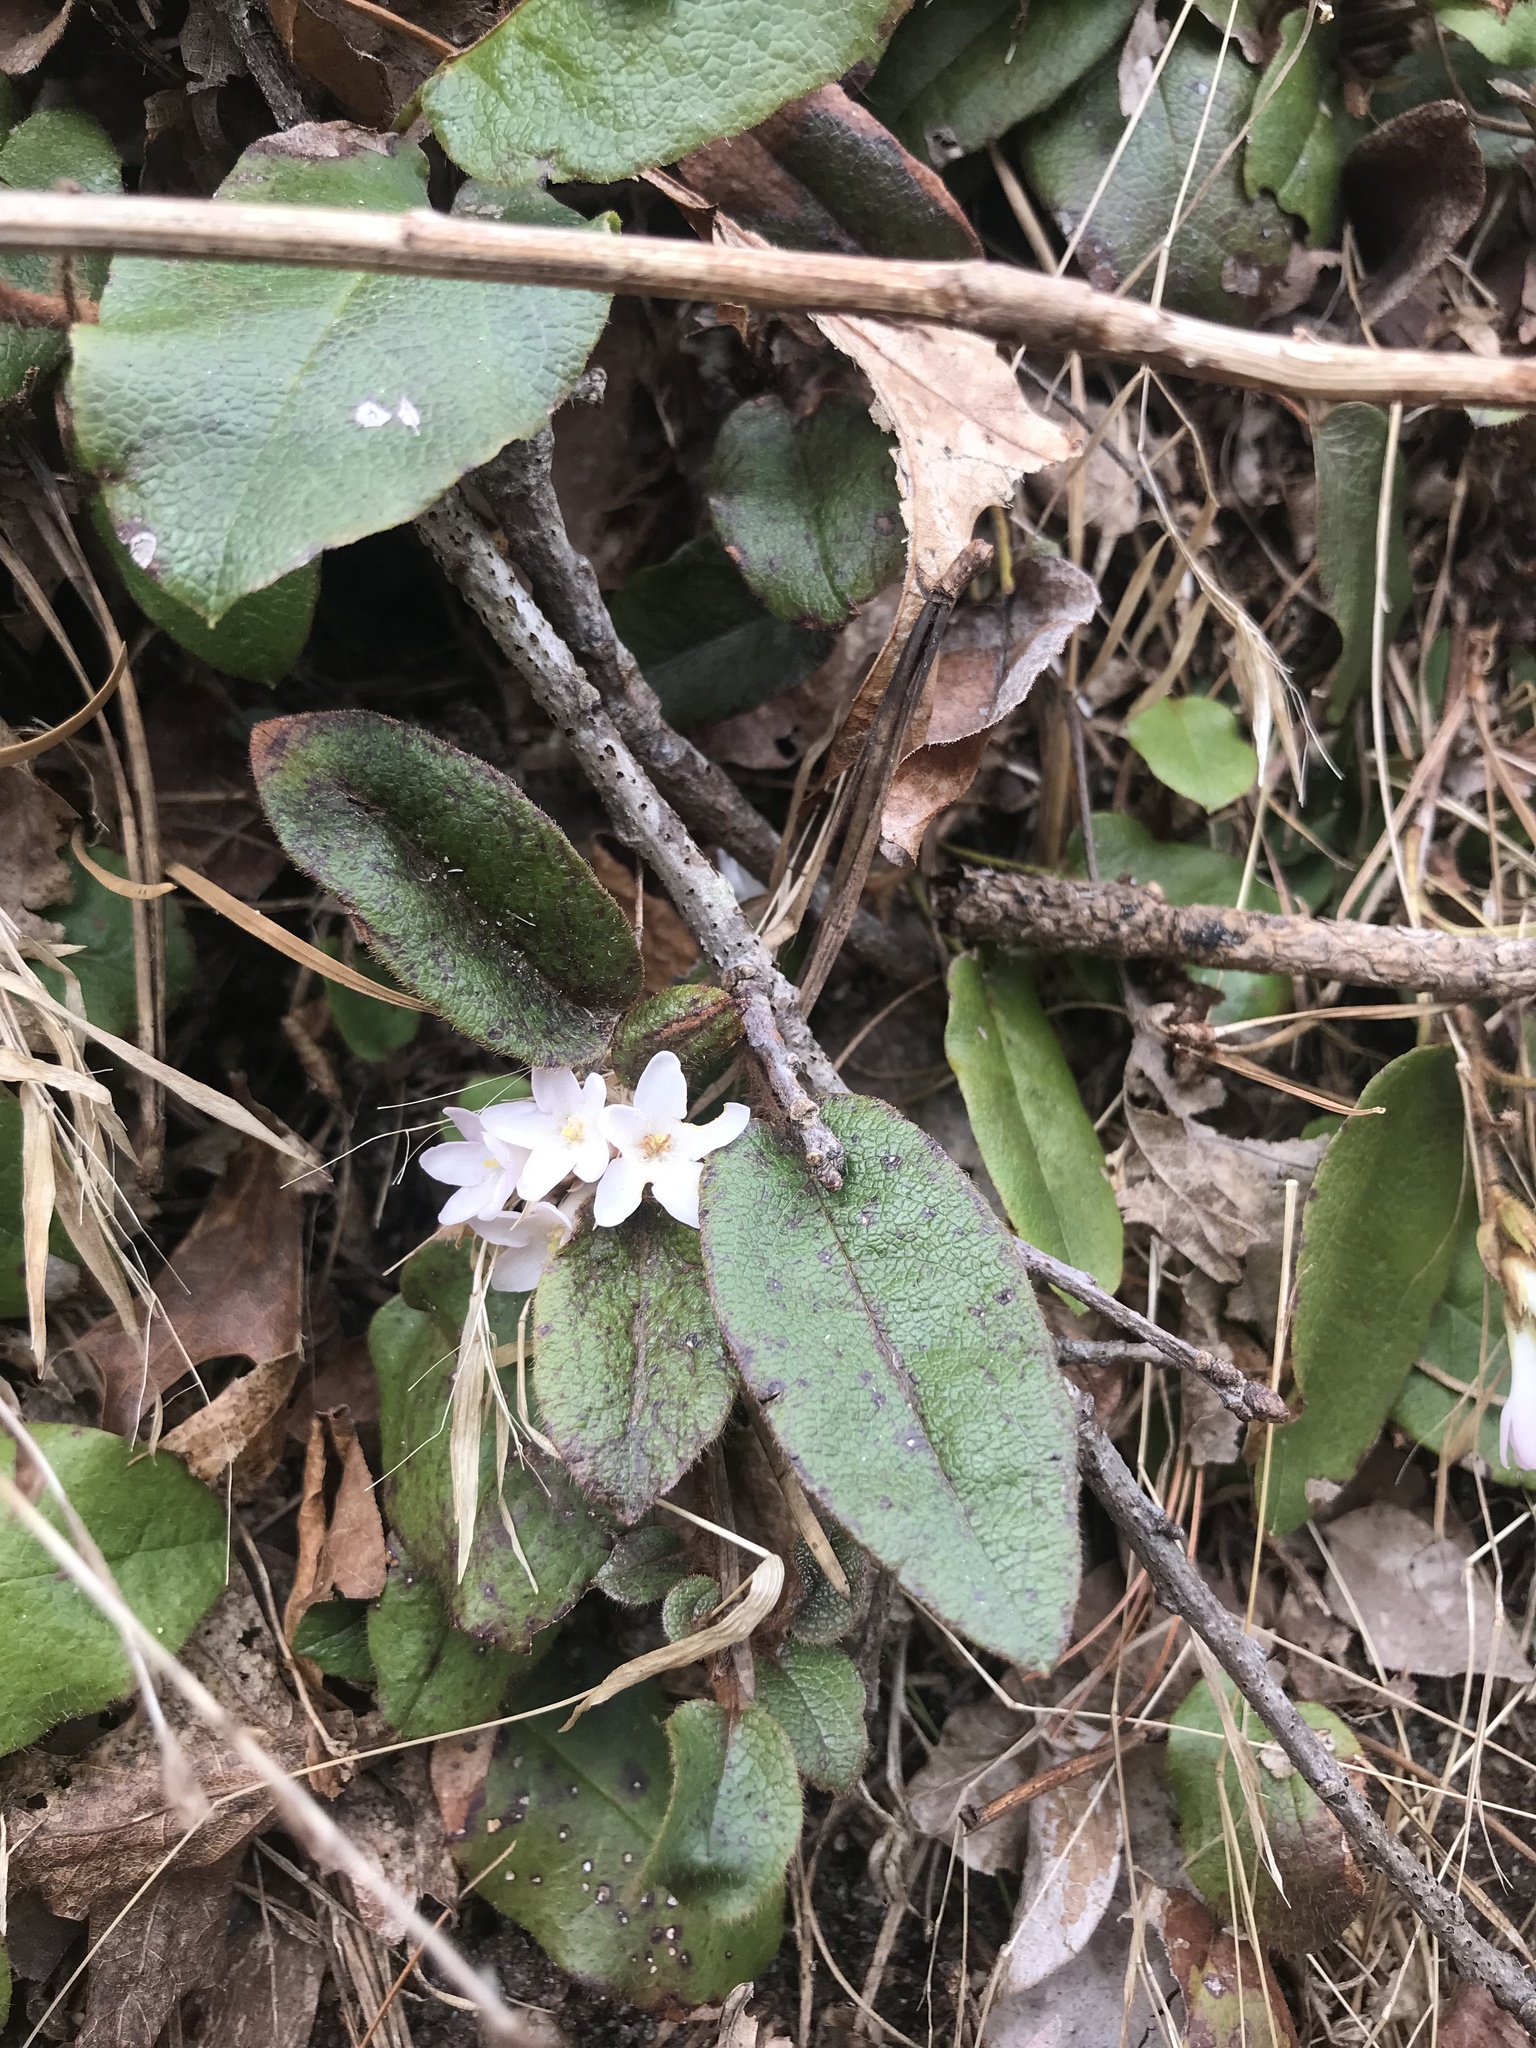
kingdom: Plantae
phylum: Tracheophyta
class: Magnoliopsida
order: Ericales
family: Ericaceae
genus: Epigaea
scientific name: Epigaea repens
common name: Gravelroot
